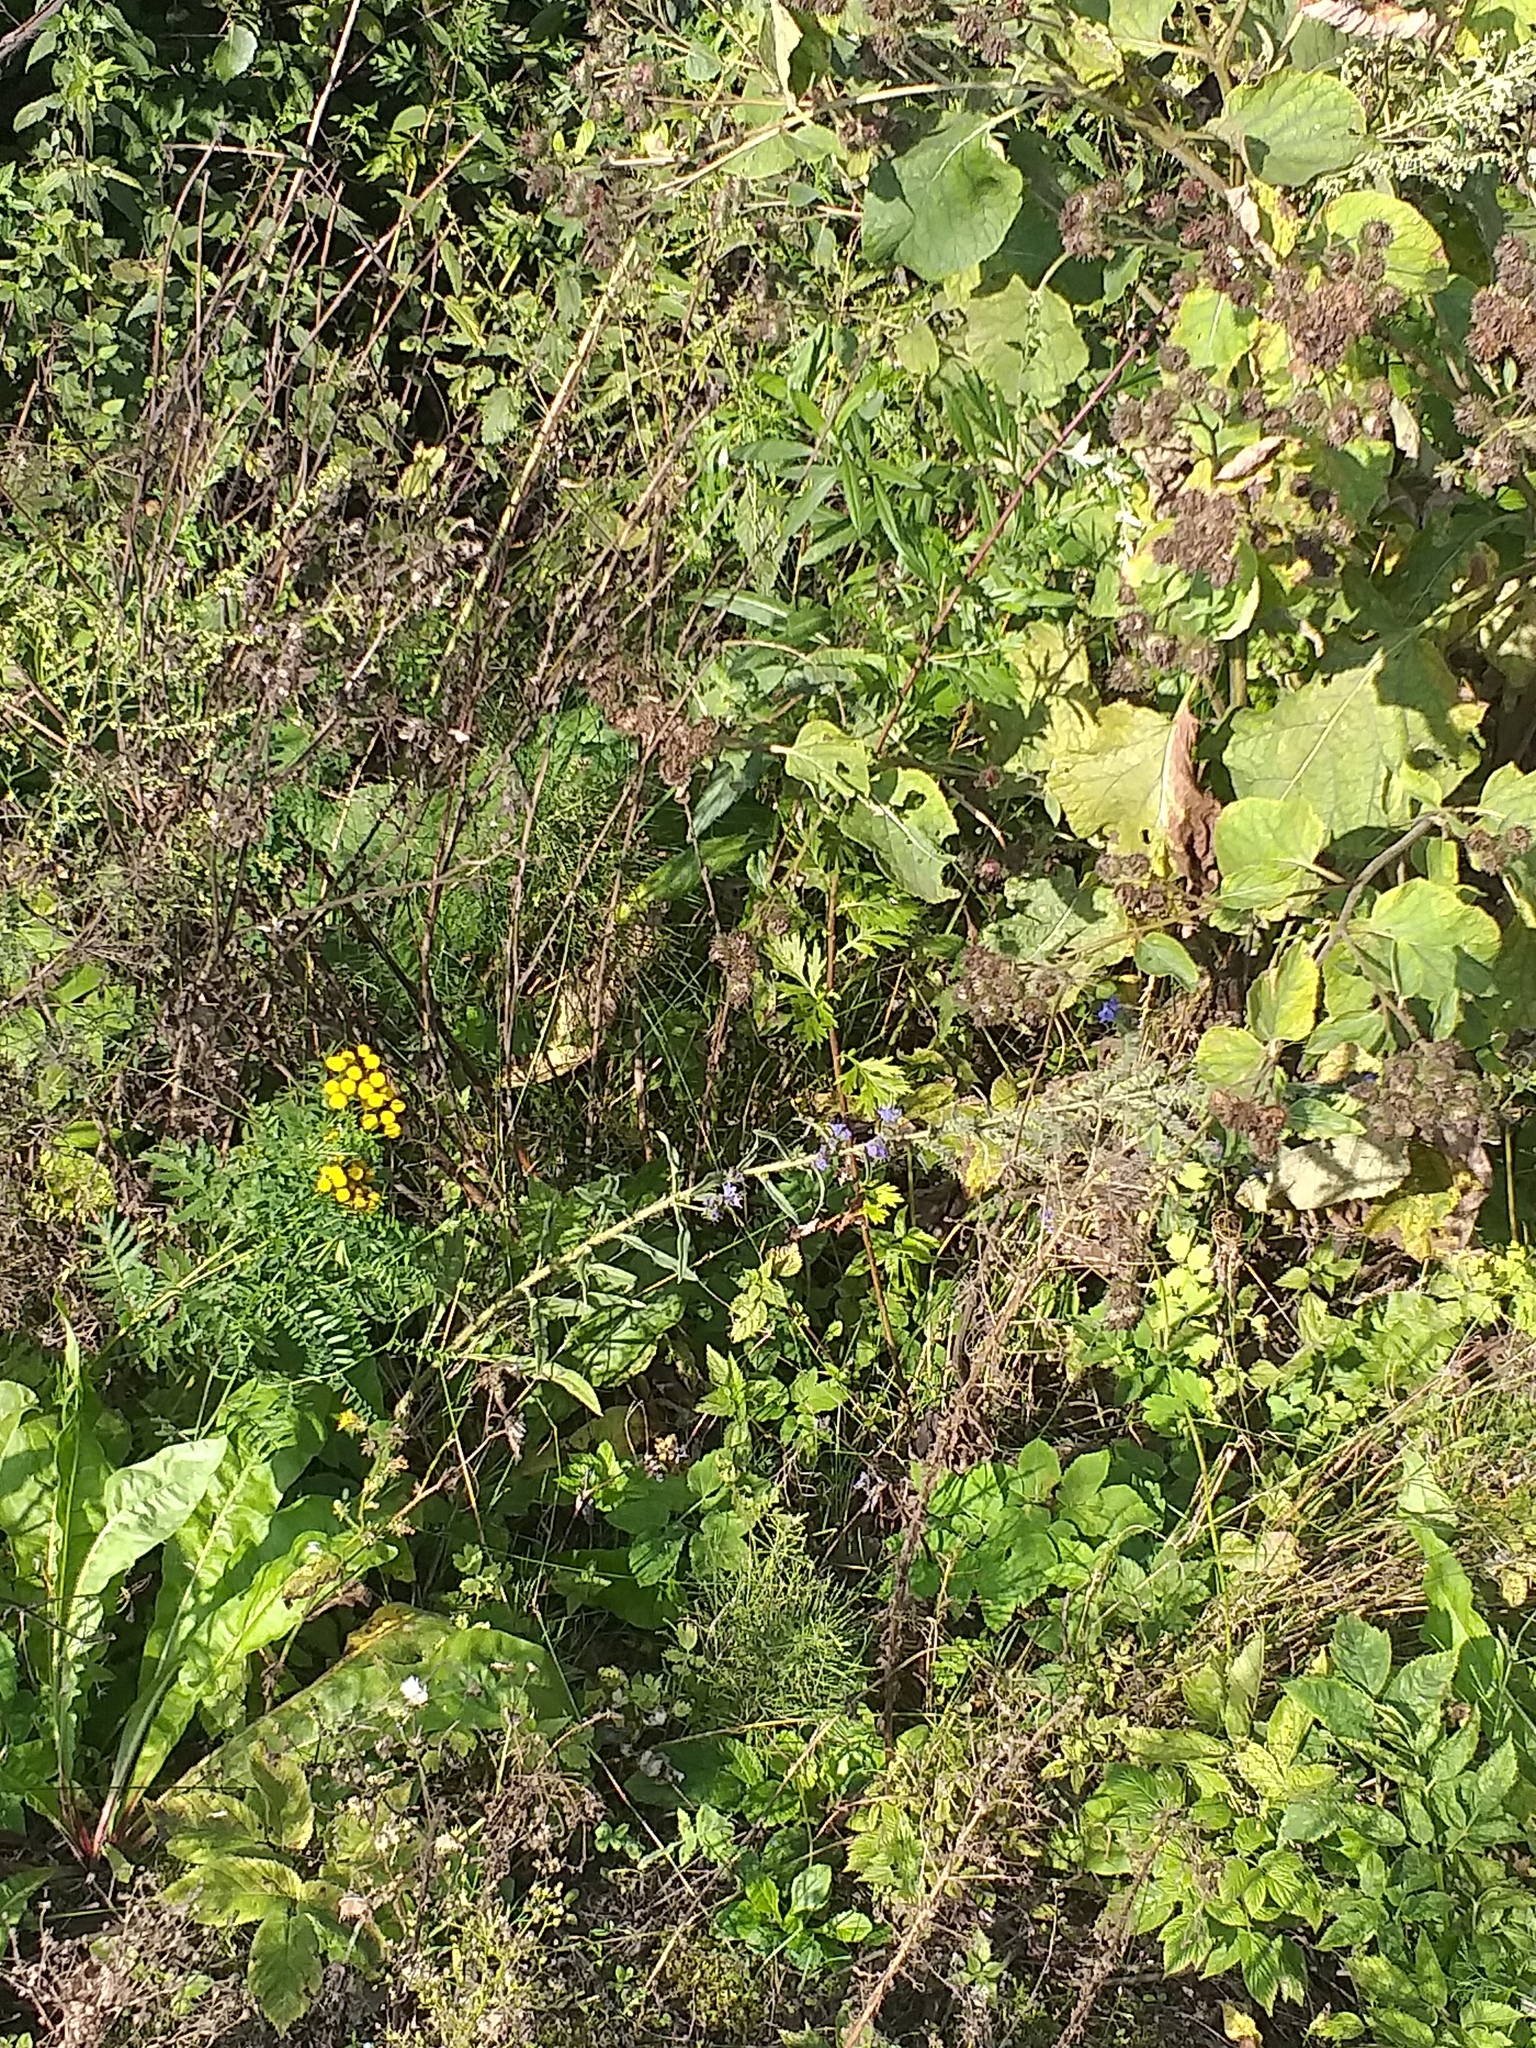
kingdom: Plantae
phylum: Tracheophyta
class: Magnoliopsida
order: Boraginales
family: Boraginaceae
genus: Echium
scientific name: Echium vulgare
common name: Common viper's bugloss
